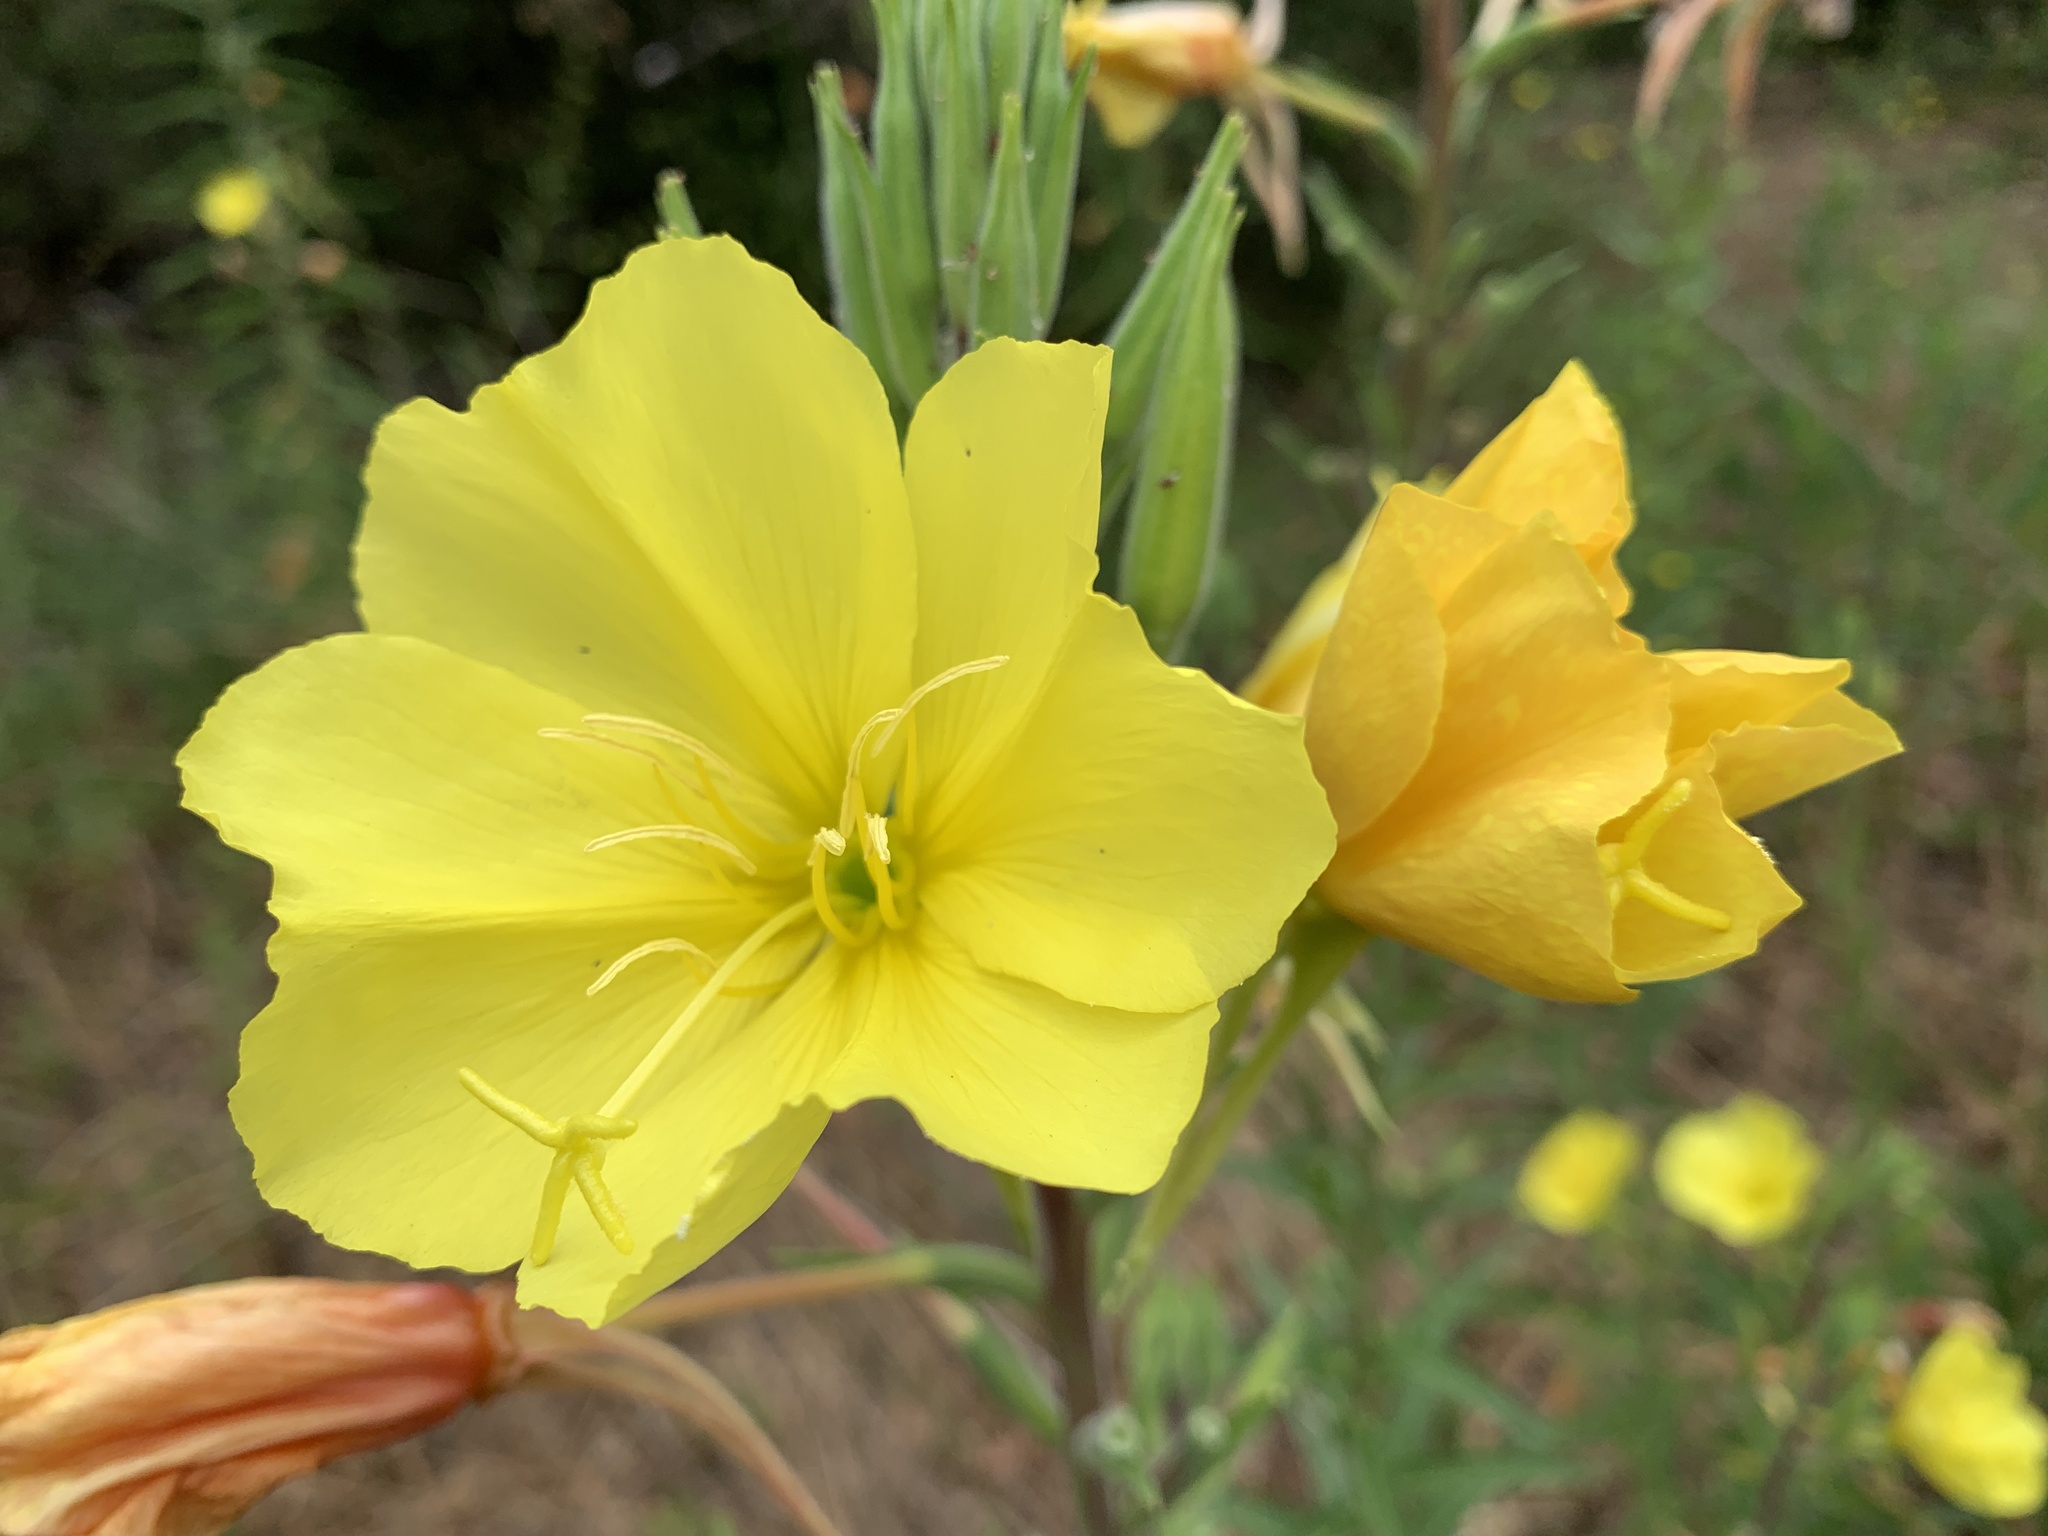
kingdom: Plantae
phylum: Tracheophyta
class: Magnoliopsida
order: Myrtales
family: Onagraceae
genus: Oenothera
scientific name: Oenothera elata
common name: Hooker's evening-primrose
